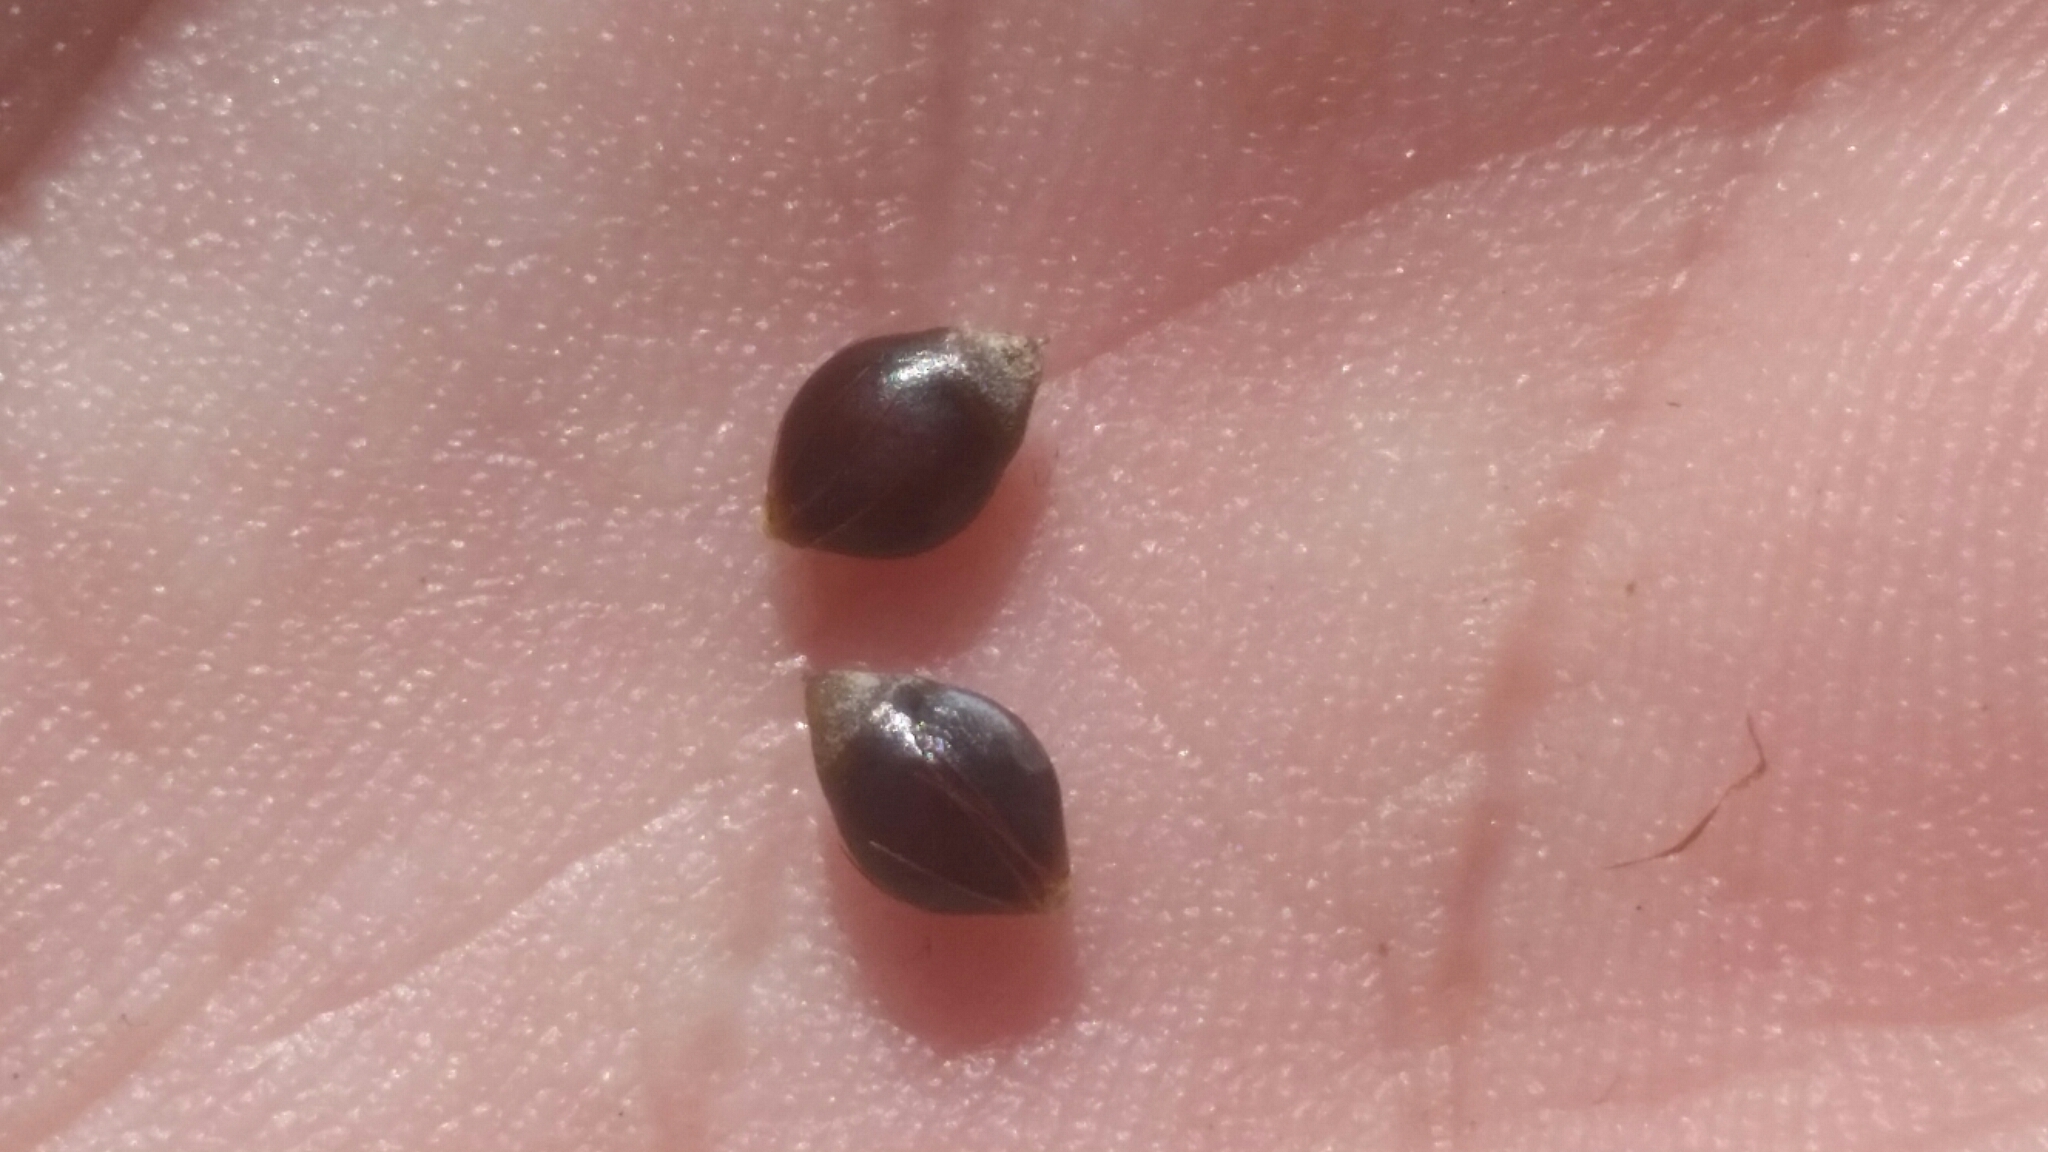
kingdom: Plantae
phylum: Tracheophyta
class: Liliopsida
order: Poales
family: Cyperaceae
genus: Rhynchospora
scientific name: Rhynchospora megalocarpa
